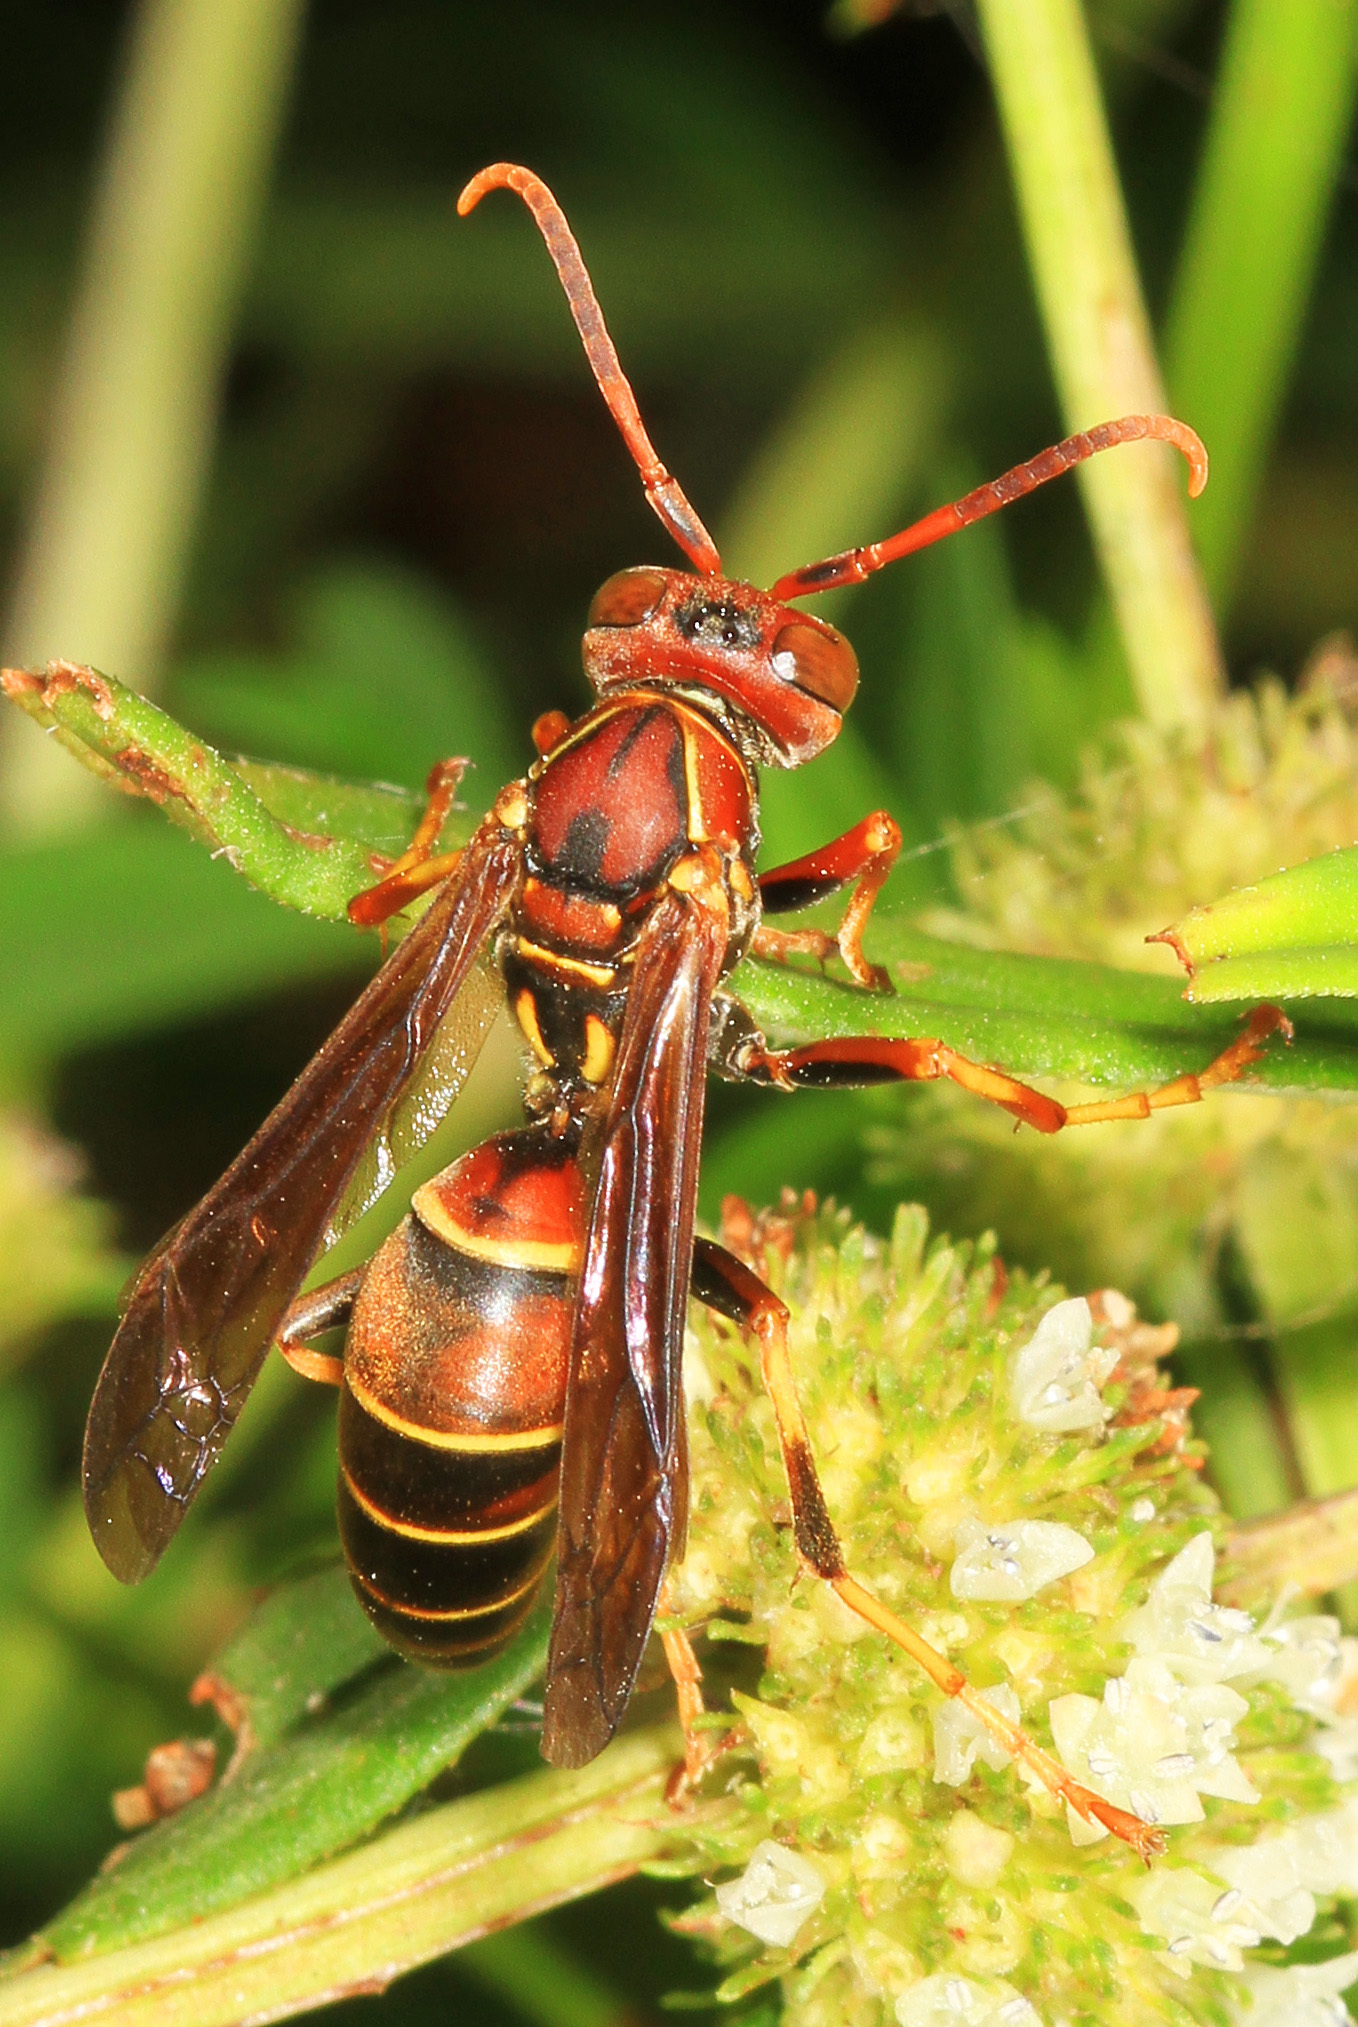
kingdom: Animalia
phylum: Arthropoda
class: Insecta
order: Hymenoptera
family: Eumenidae
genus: Polistes
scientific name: Polistes dorsalis
